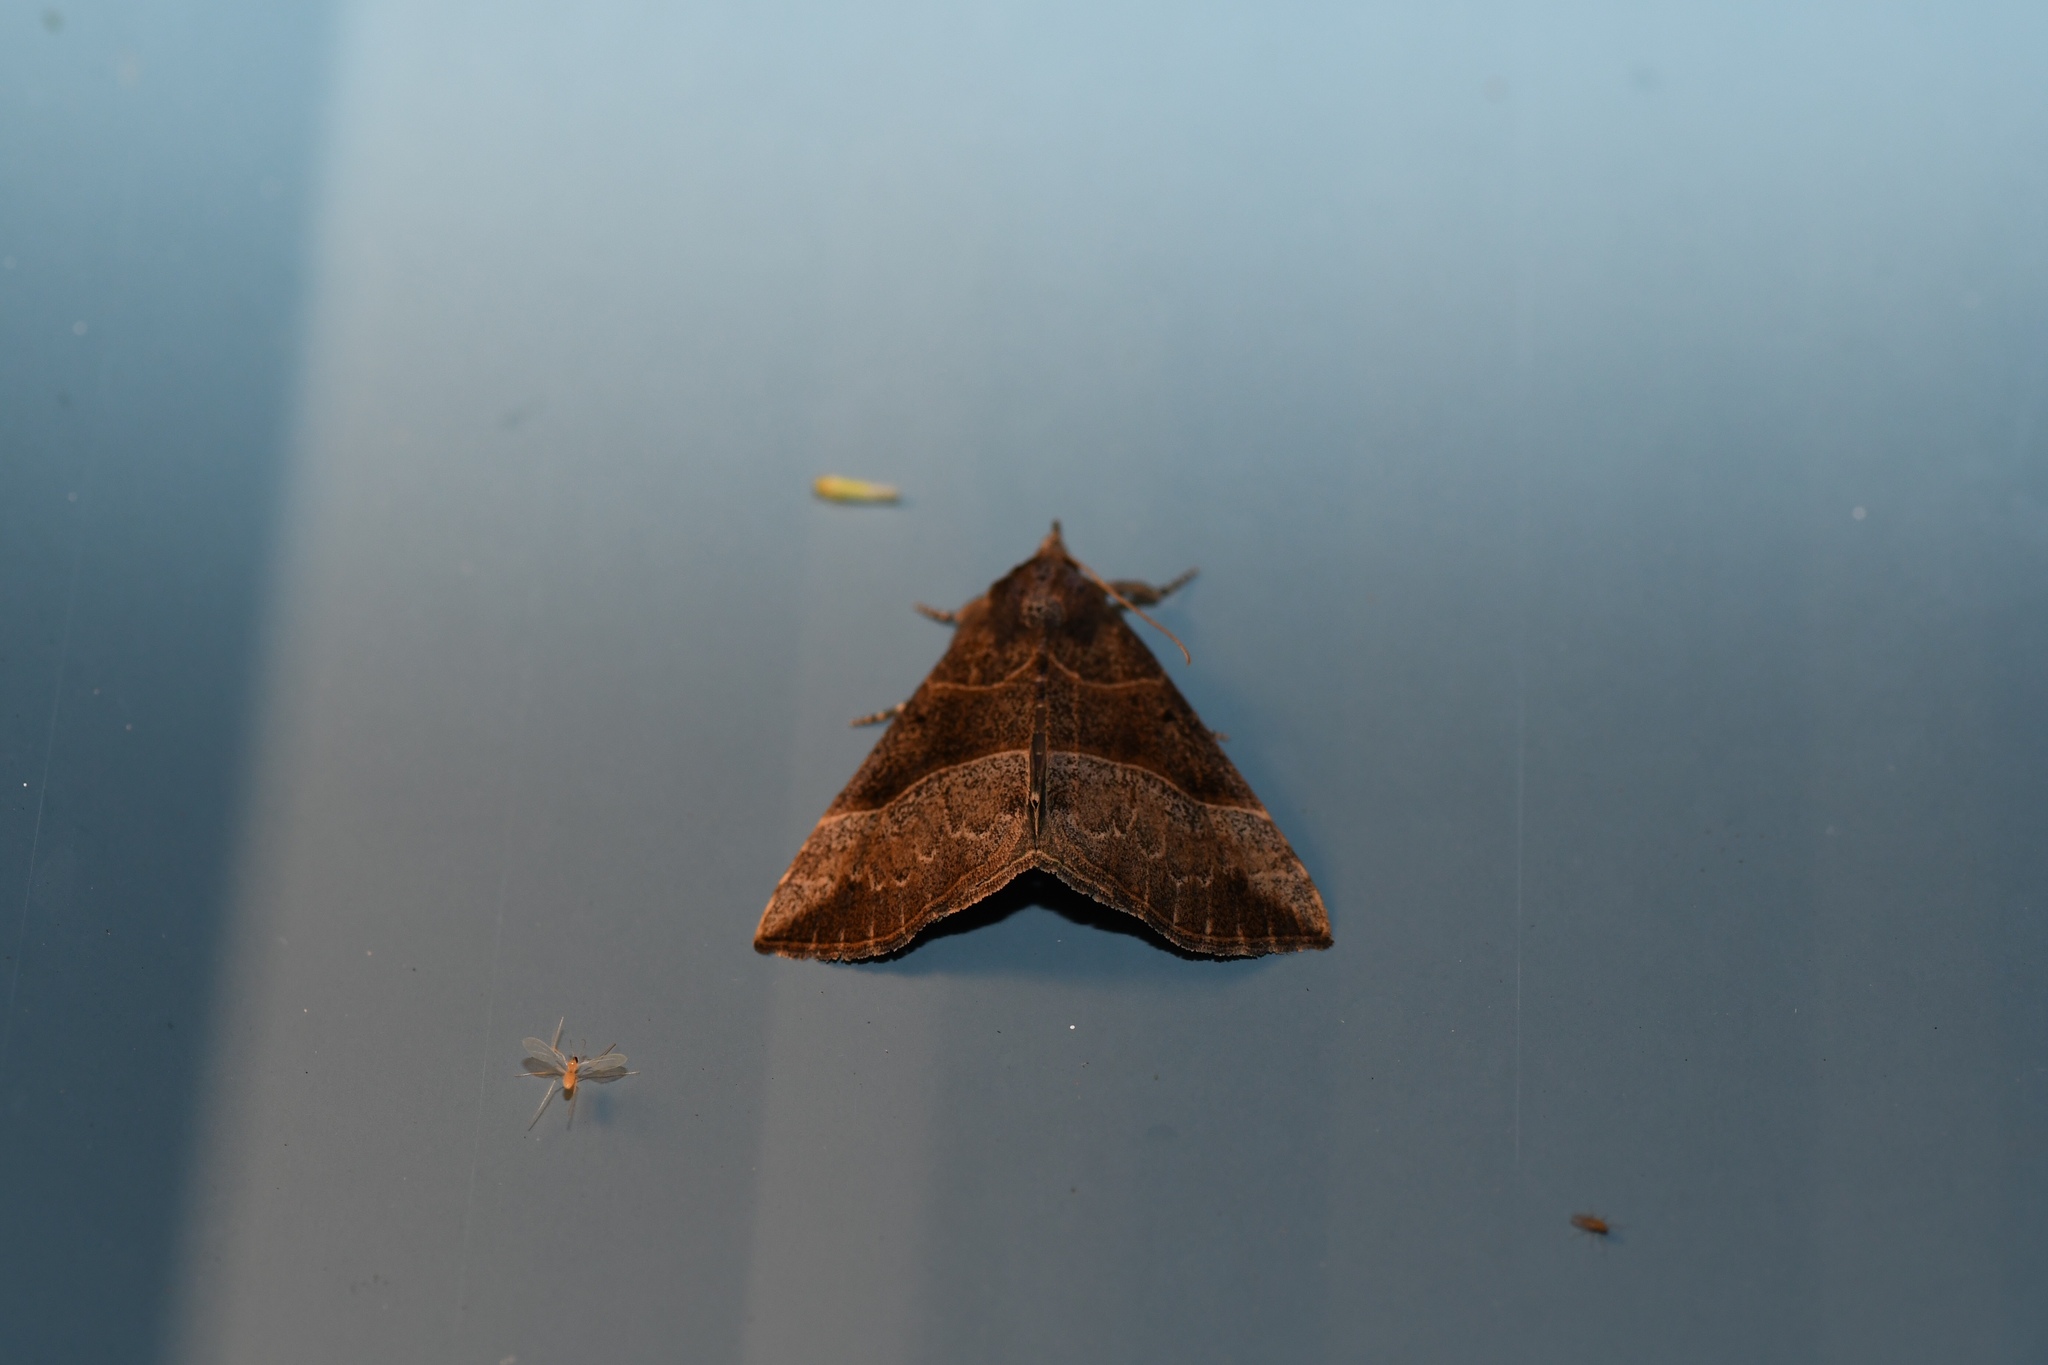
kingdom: Animalia
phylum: Arthropoda
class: Insecta
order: Lepidoptera
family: Erebidae
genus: Hypena
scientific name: Hypena deceptalis
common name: Deceptive snout
